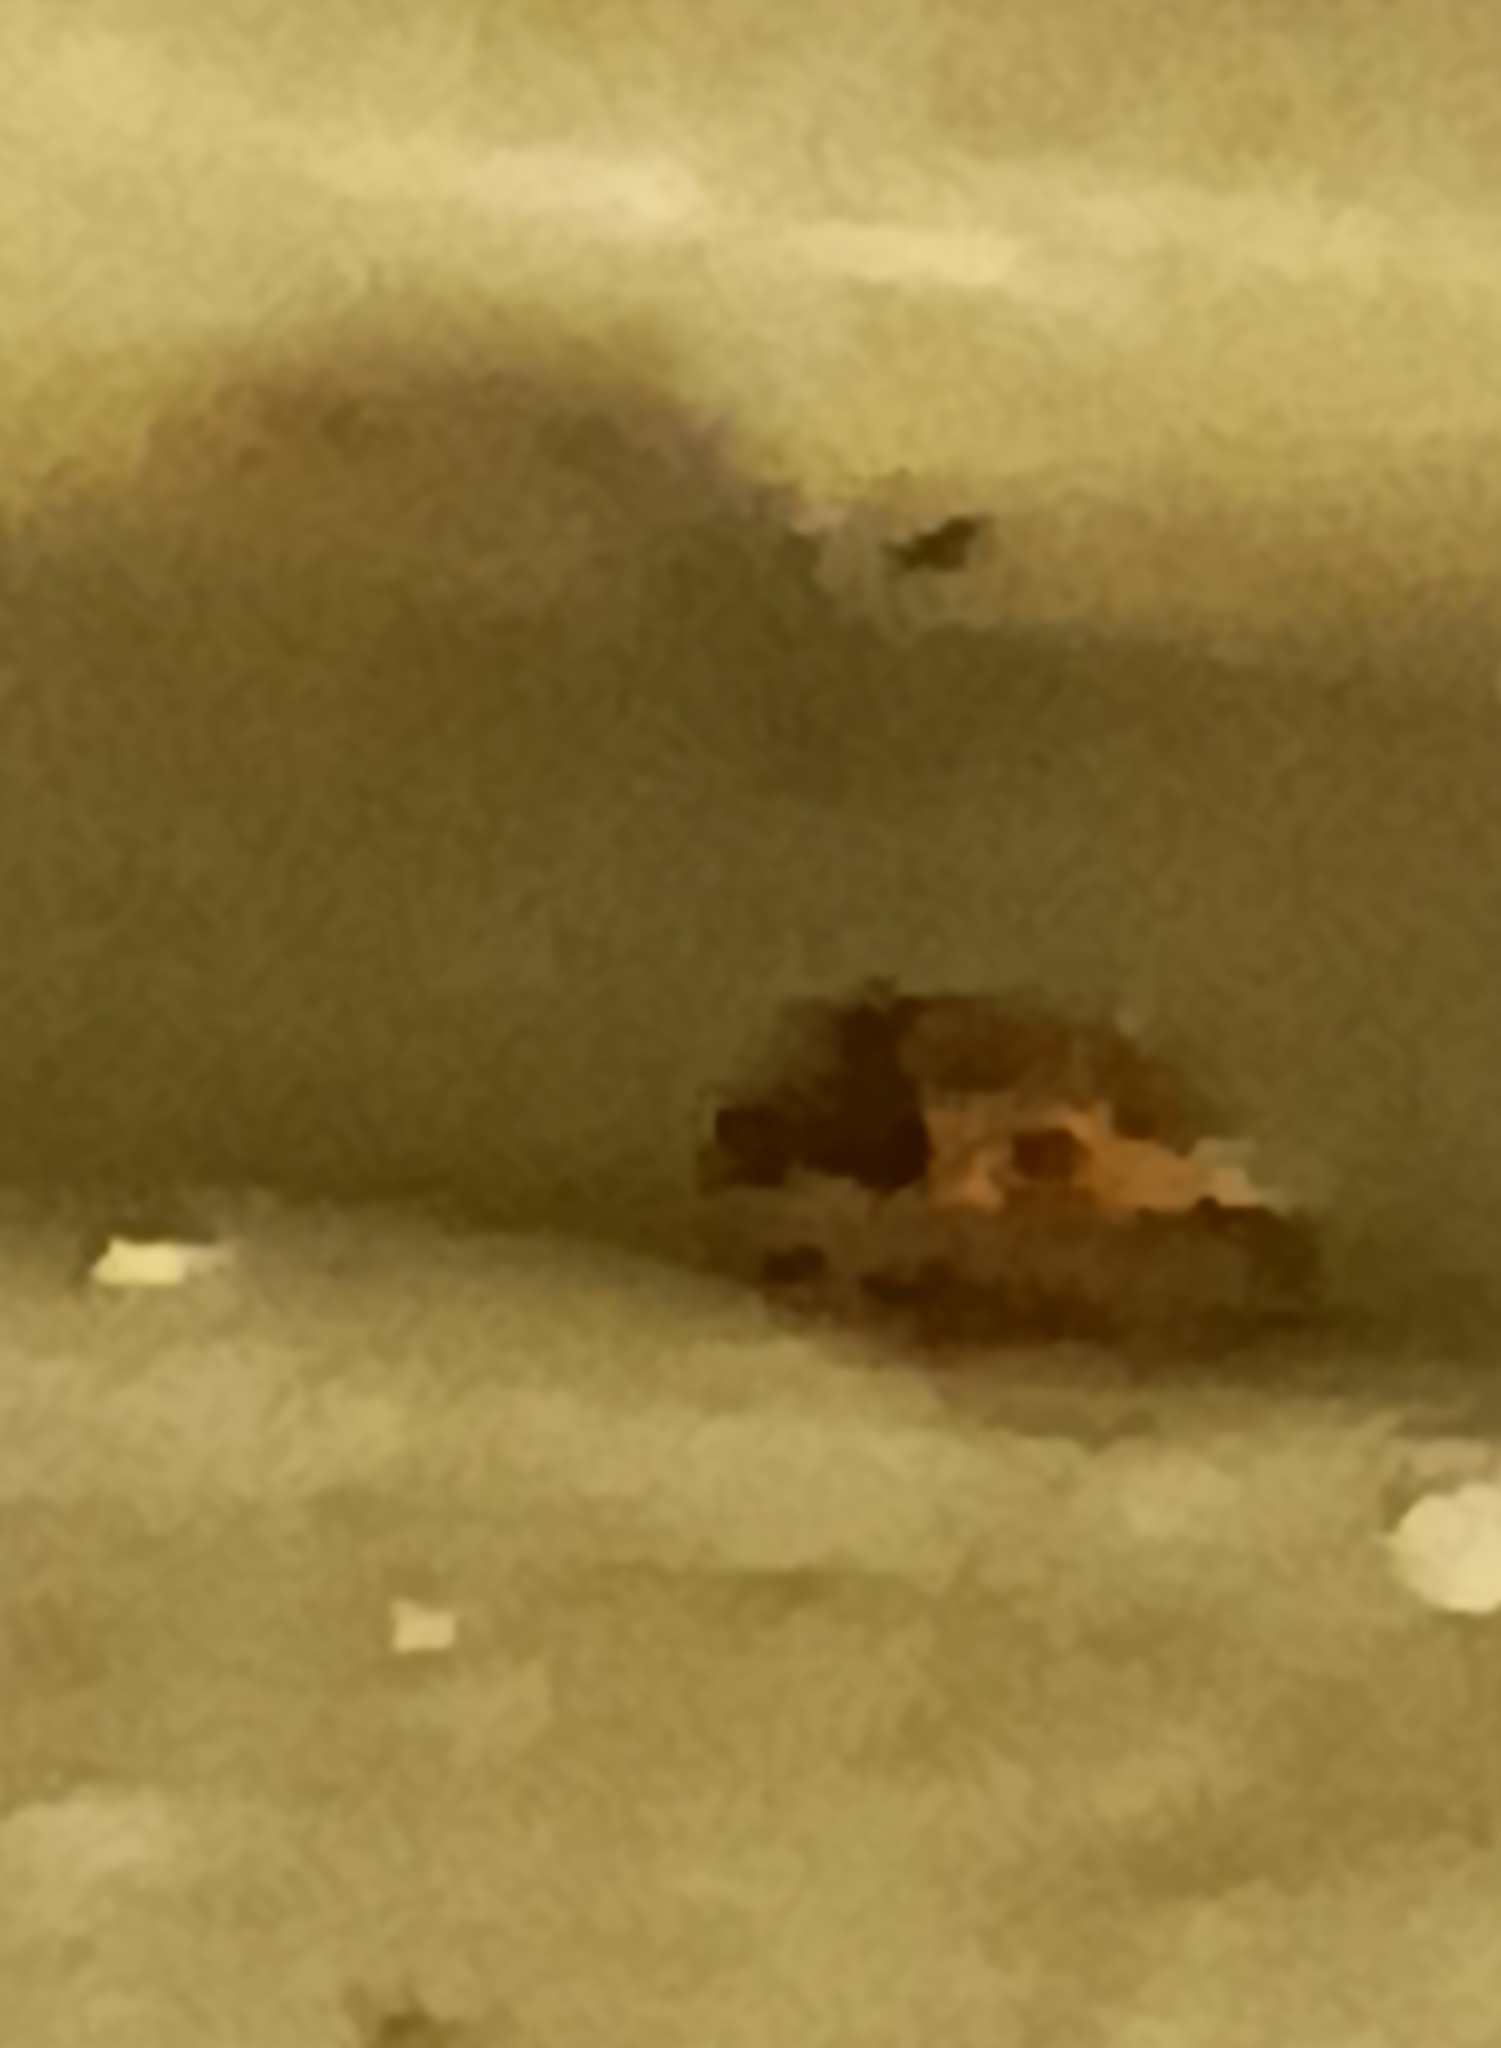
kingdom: Animalia
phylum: Arthropoda
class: Insecta
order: Coleoptera
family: Coccinellidae
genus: Harmonia
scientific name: Harmonia axyridis
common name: Harlequin ladybird
